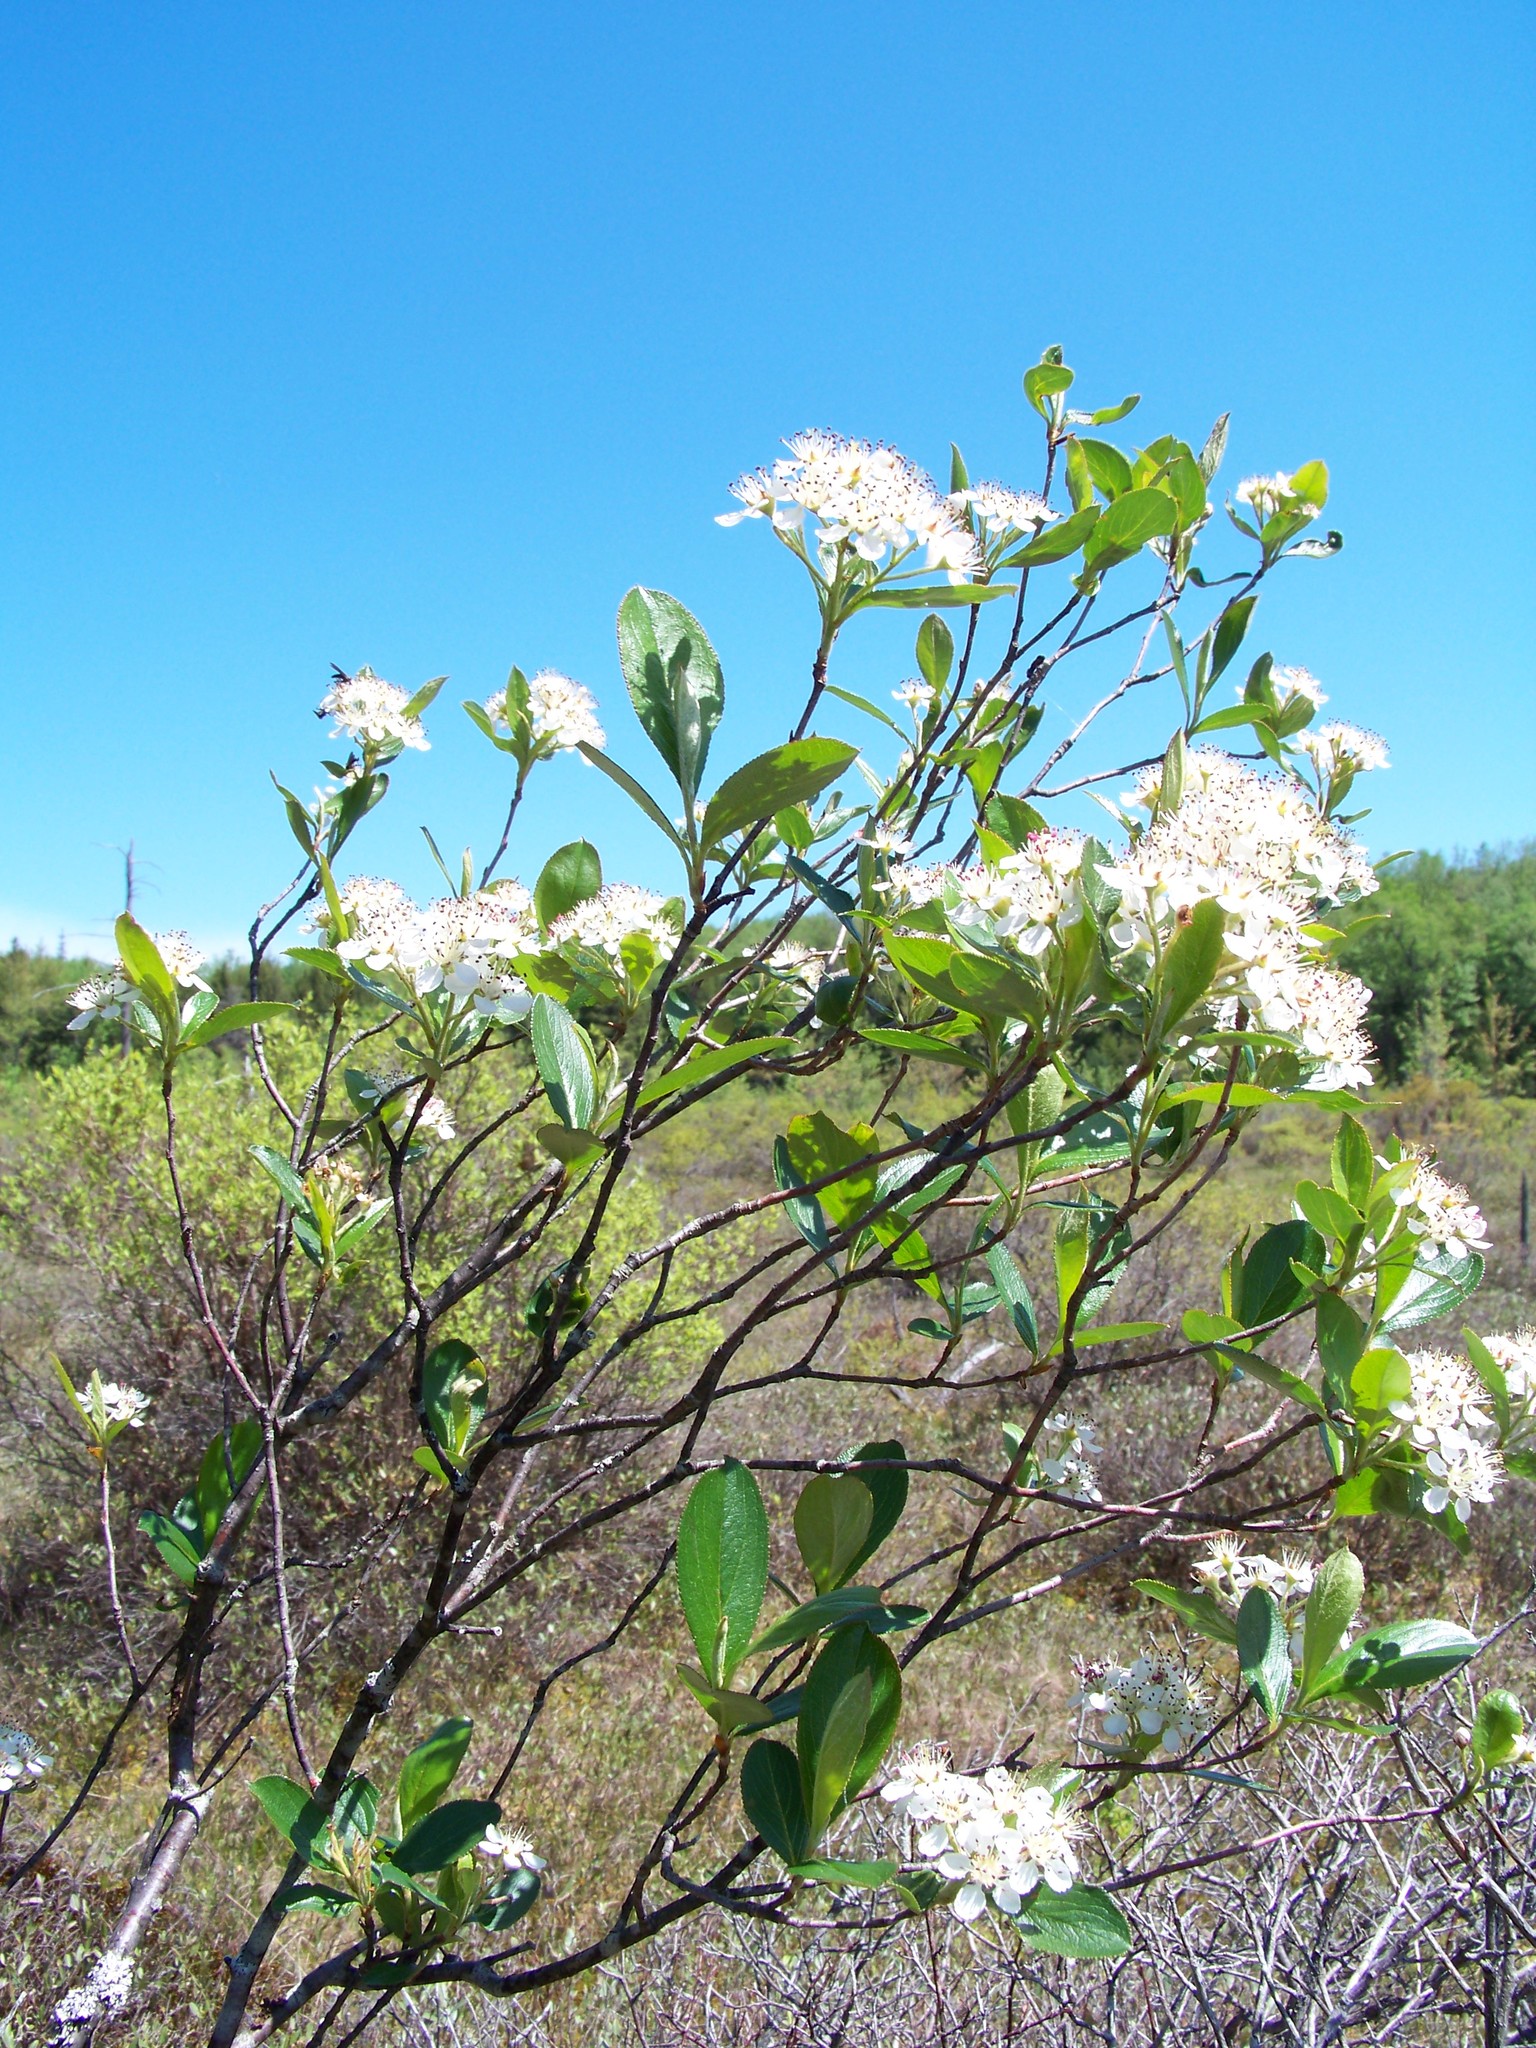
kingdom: Plantae
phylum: Tracheophyta
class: Magnoliopsida
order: Rosales
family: Rosaceae
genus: Aronia
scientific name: Aronia melanocarpa
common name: Black chokeberry
